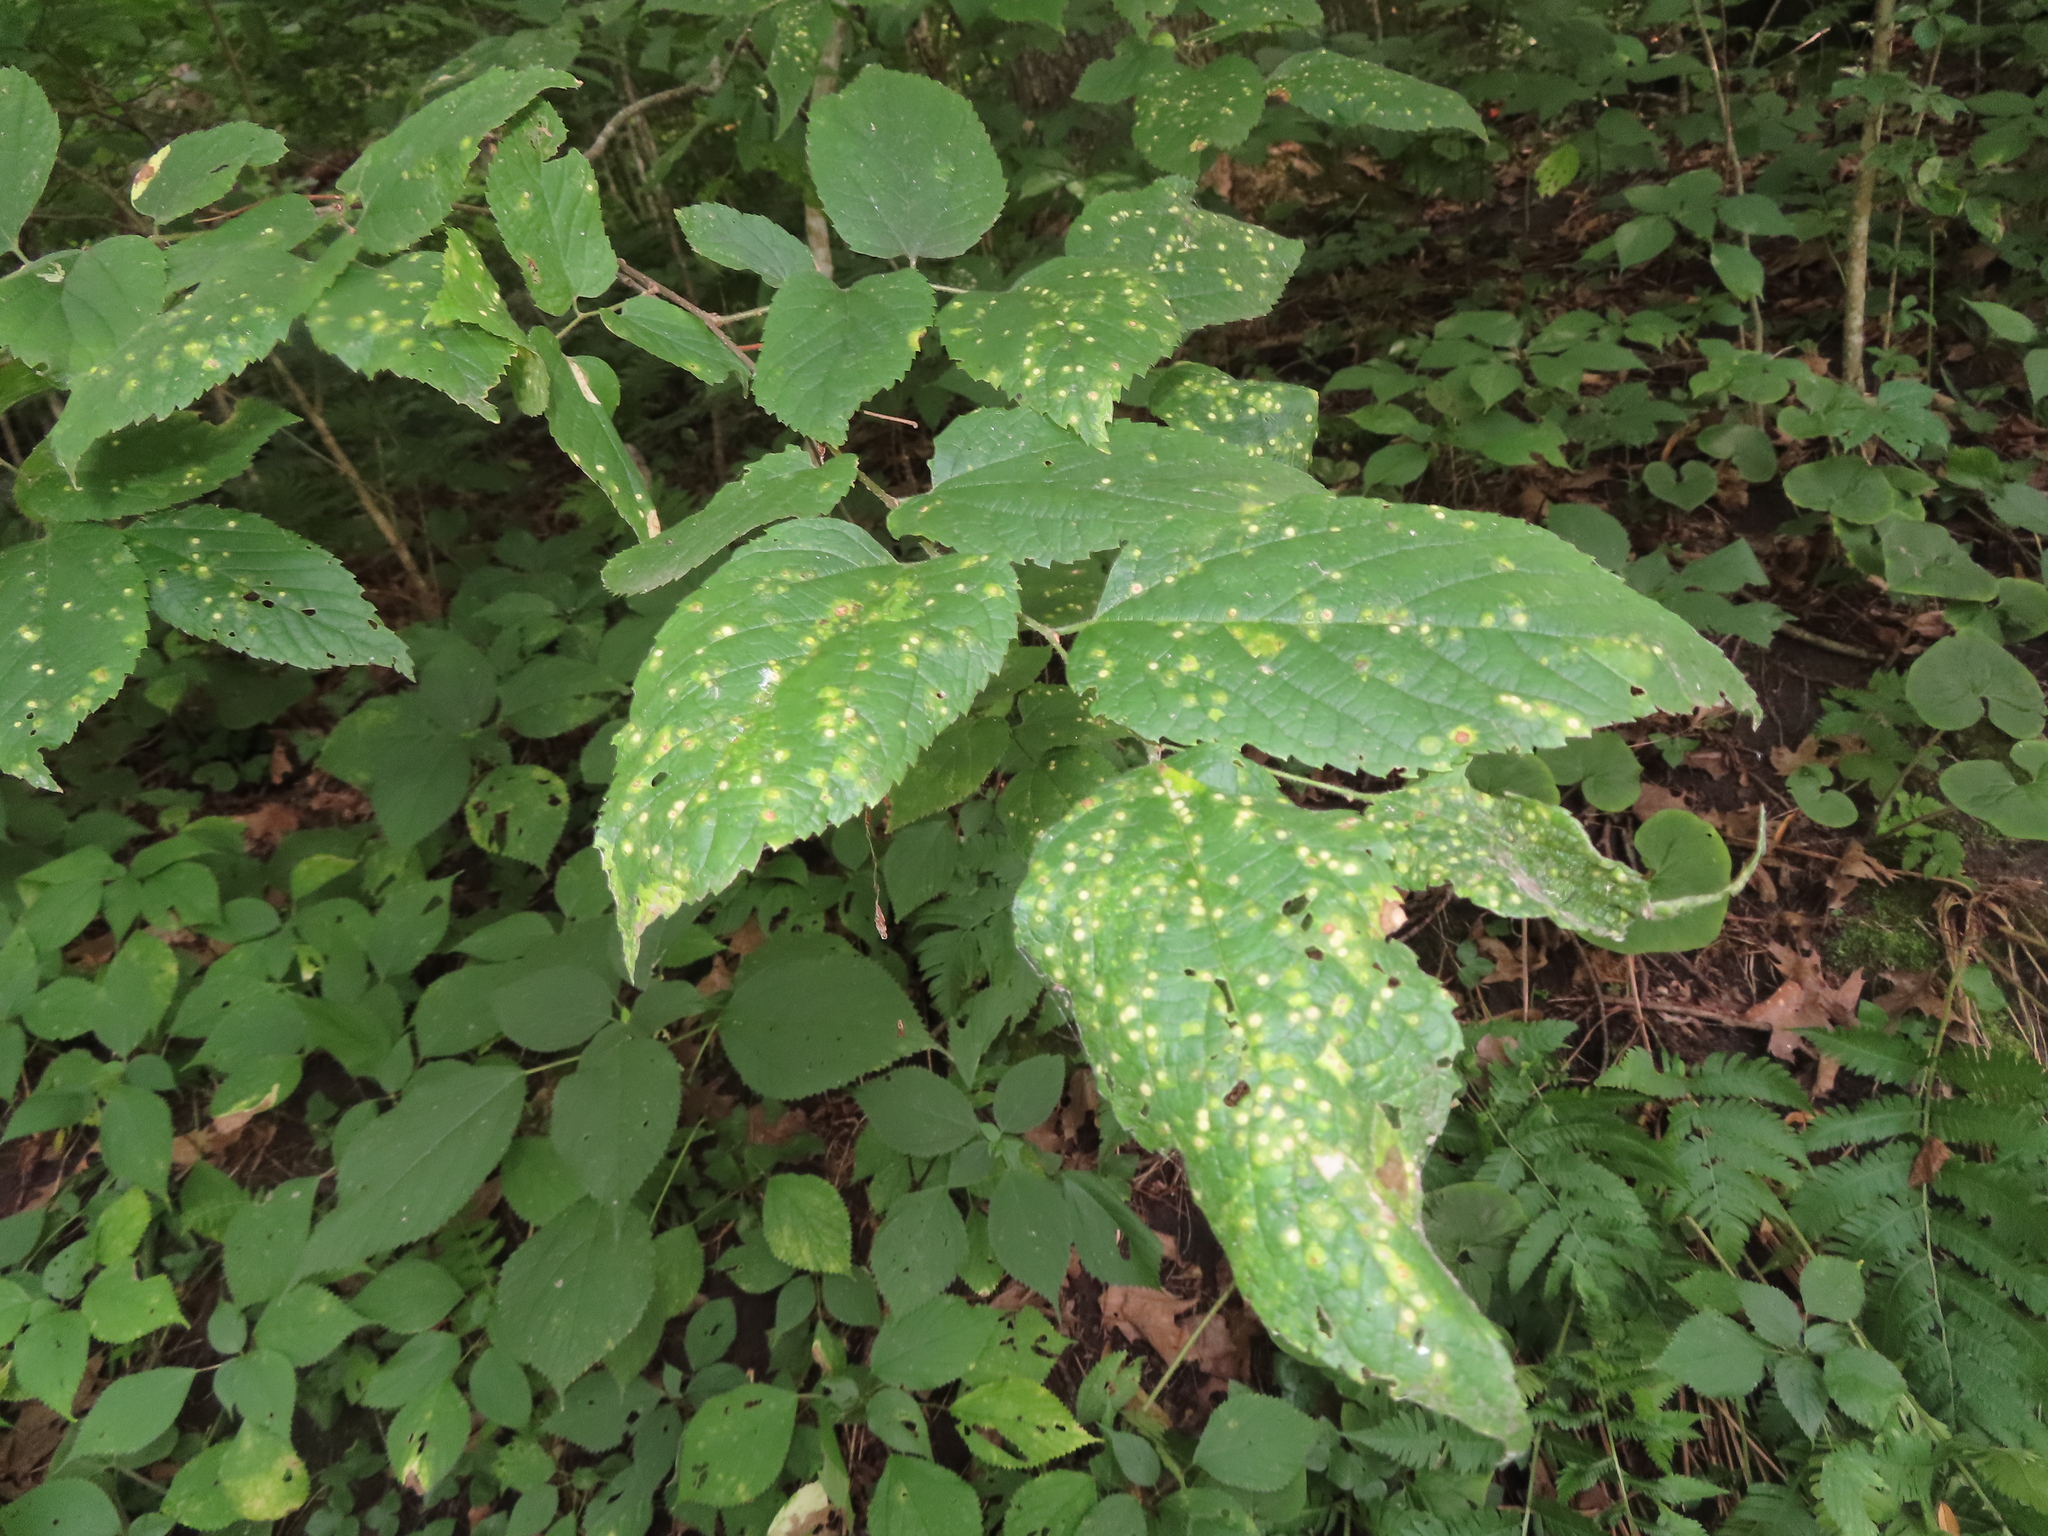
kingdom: Animalia
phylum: Arthropoda
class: Insecta
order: Hemiptera
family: Aphalaridae
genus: Pachypsylla
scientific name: Pachypsylla celtidisvesicula
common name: Hackberry blister gall psyllid
